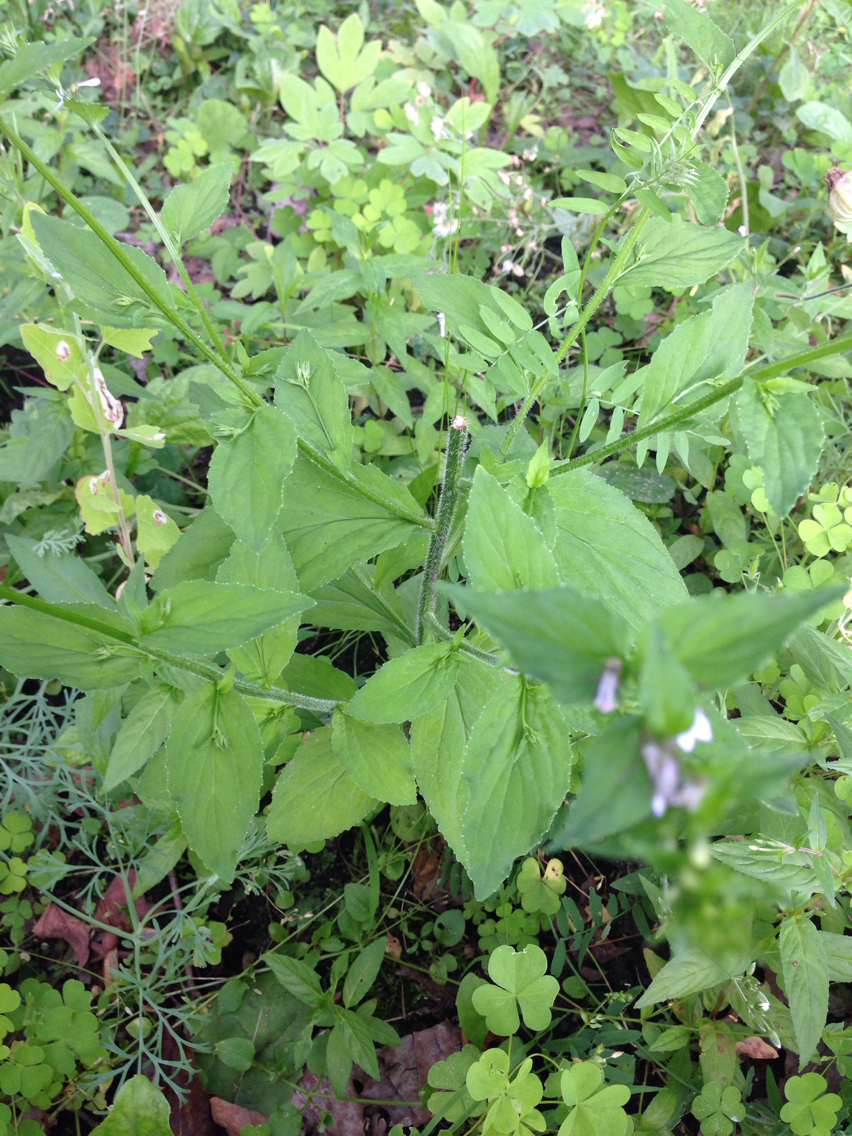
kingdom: Plantae
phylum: Tracheophyta
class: Magnoliopsida
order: Asterales
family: Campanulaceae
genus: Lobelia
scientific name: Lobelia inflata
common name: Indian tobacco
